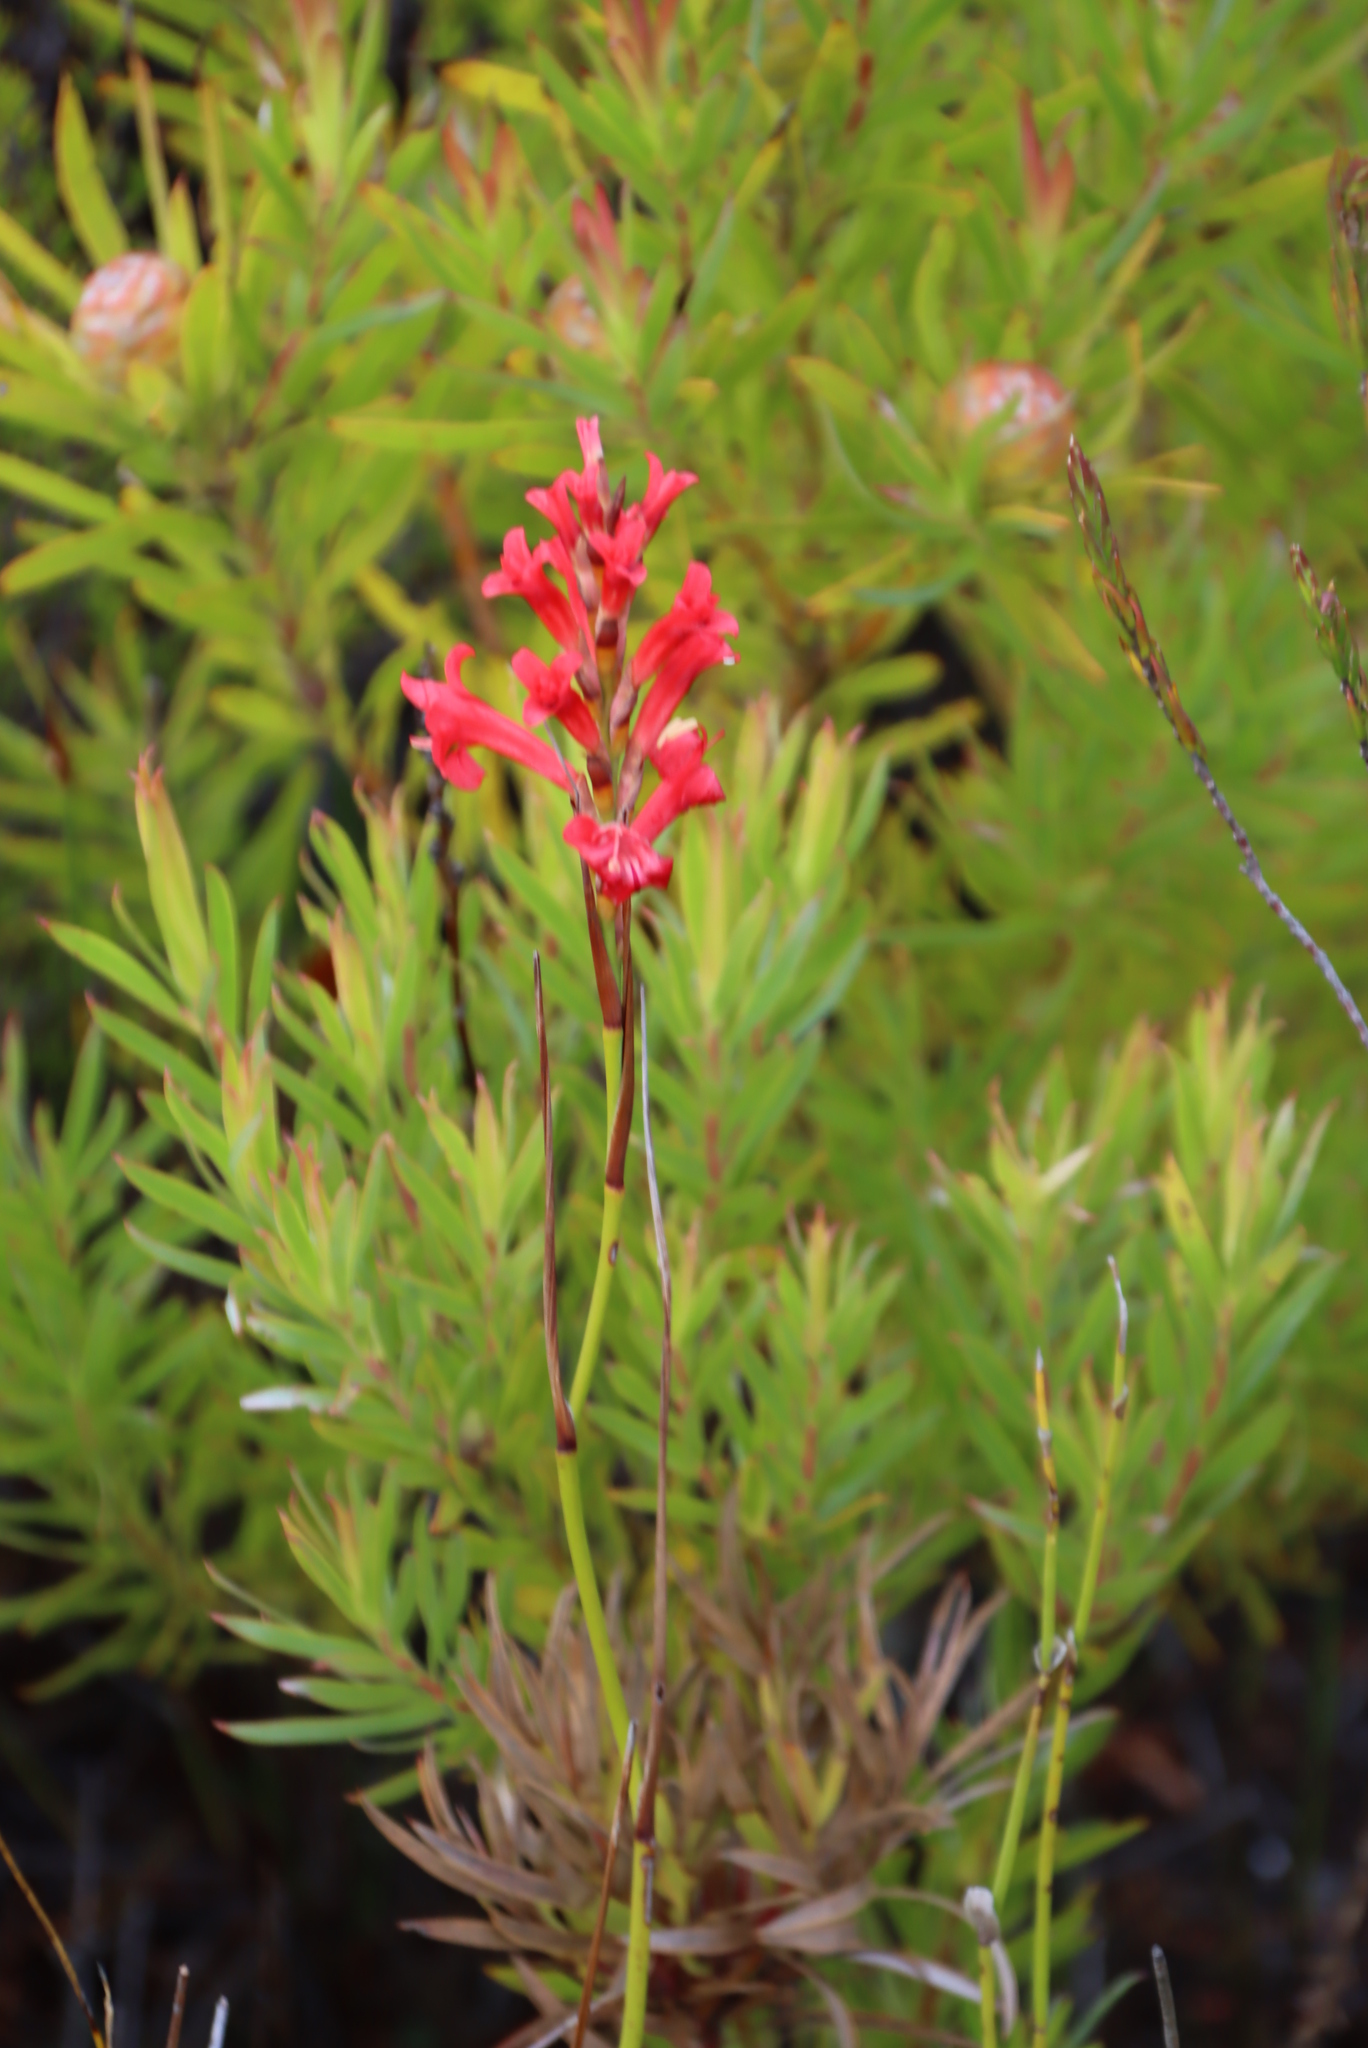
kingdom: Plantae
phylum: Tracheophyta
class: Liliopsida
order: Asparagales
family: Iridaceae
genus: Tritoniopsis
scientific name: Tritoniopsis triticea
